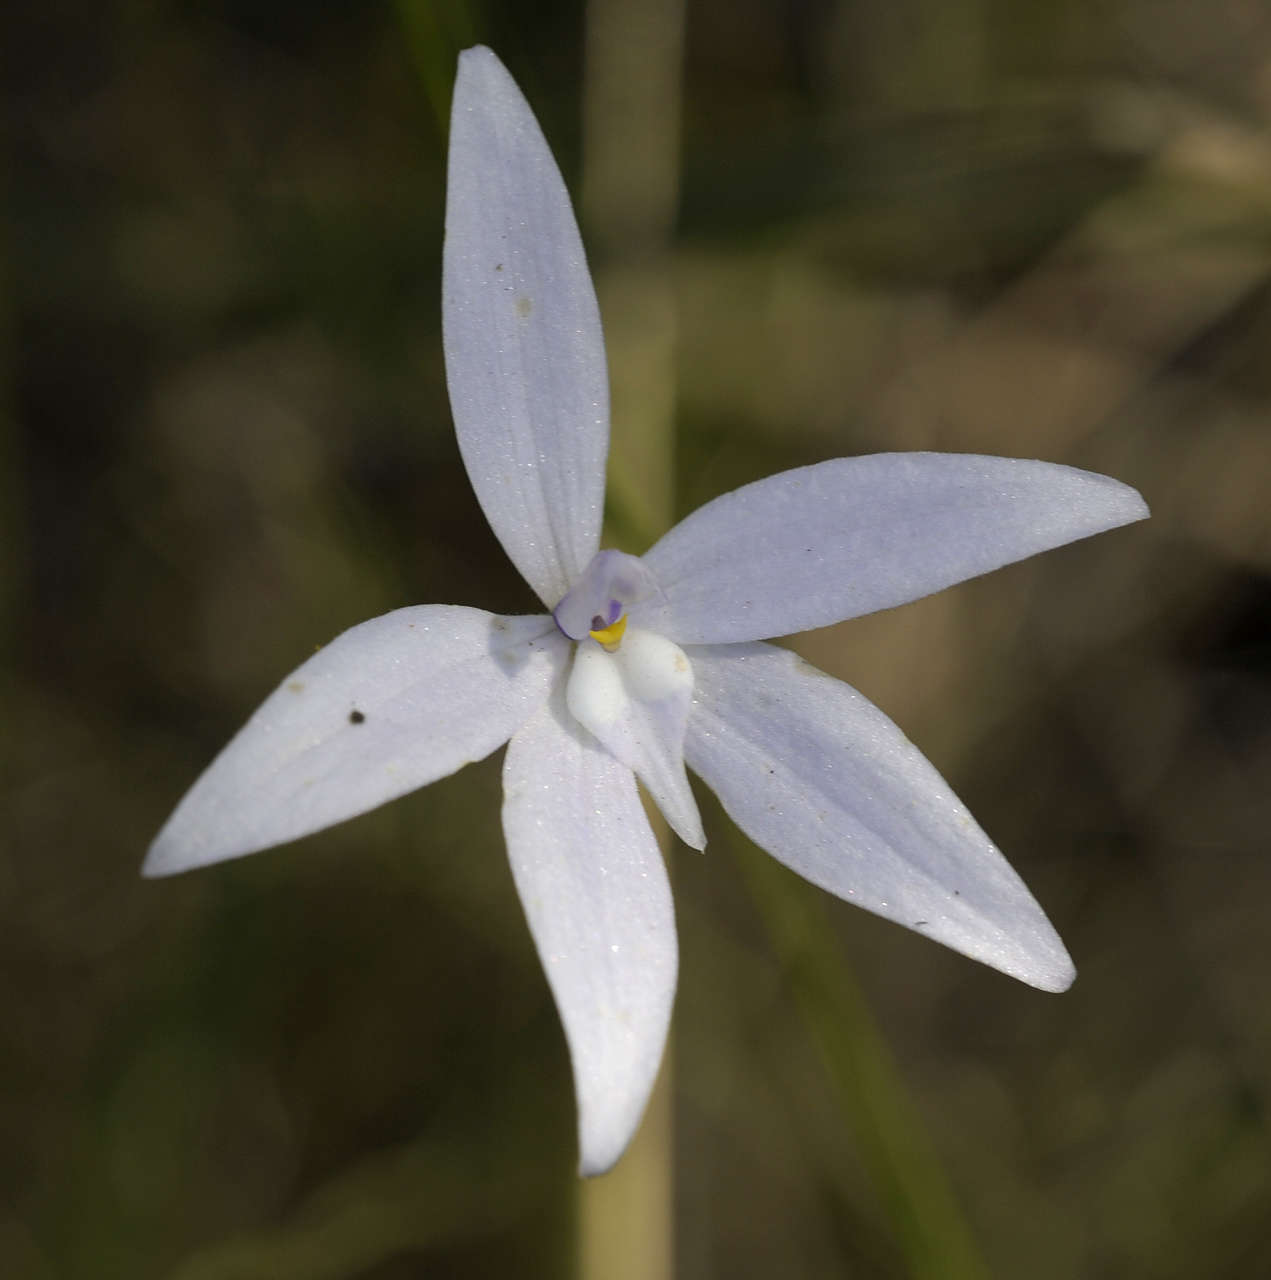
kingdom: Plantae
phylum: Tracheophyta
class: Liliopsida
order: Asparagales
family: Orchidaceae
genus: Caladenia
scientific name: Caladenia major
